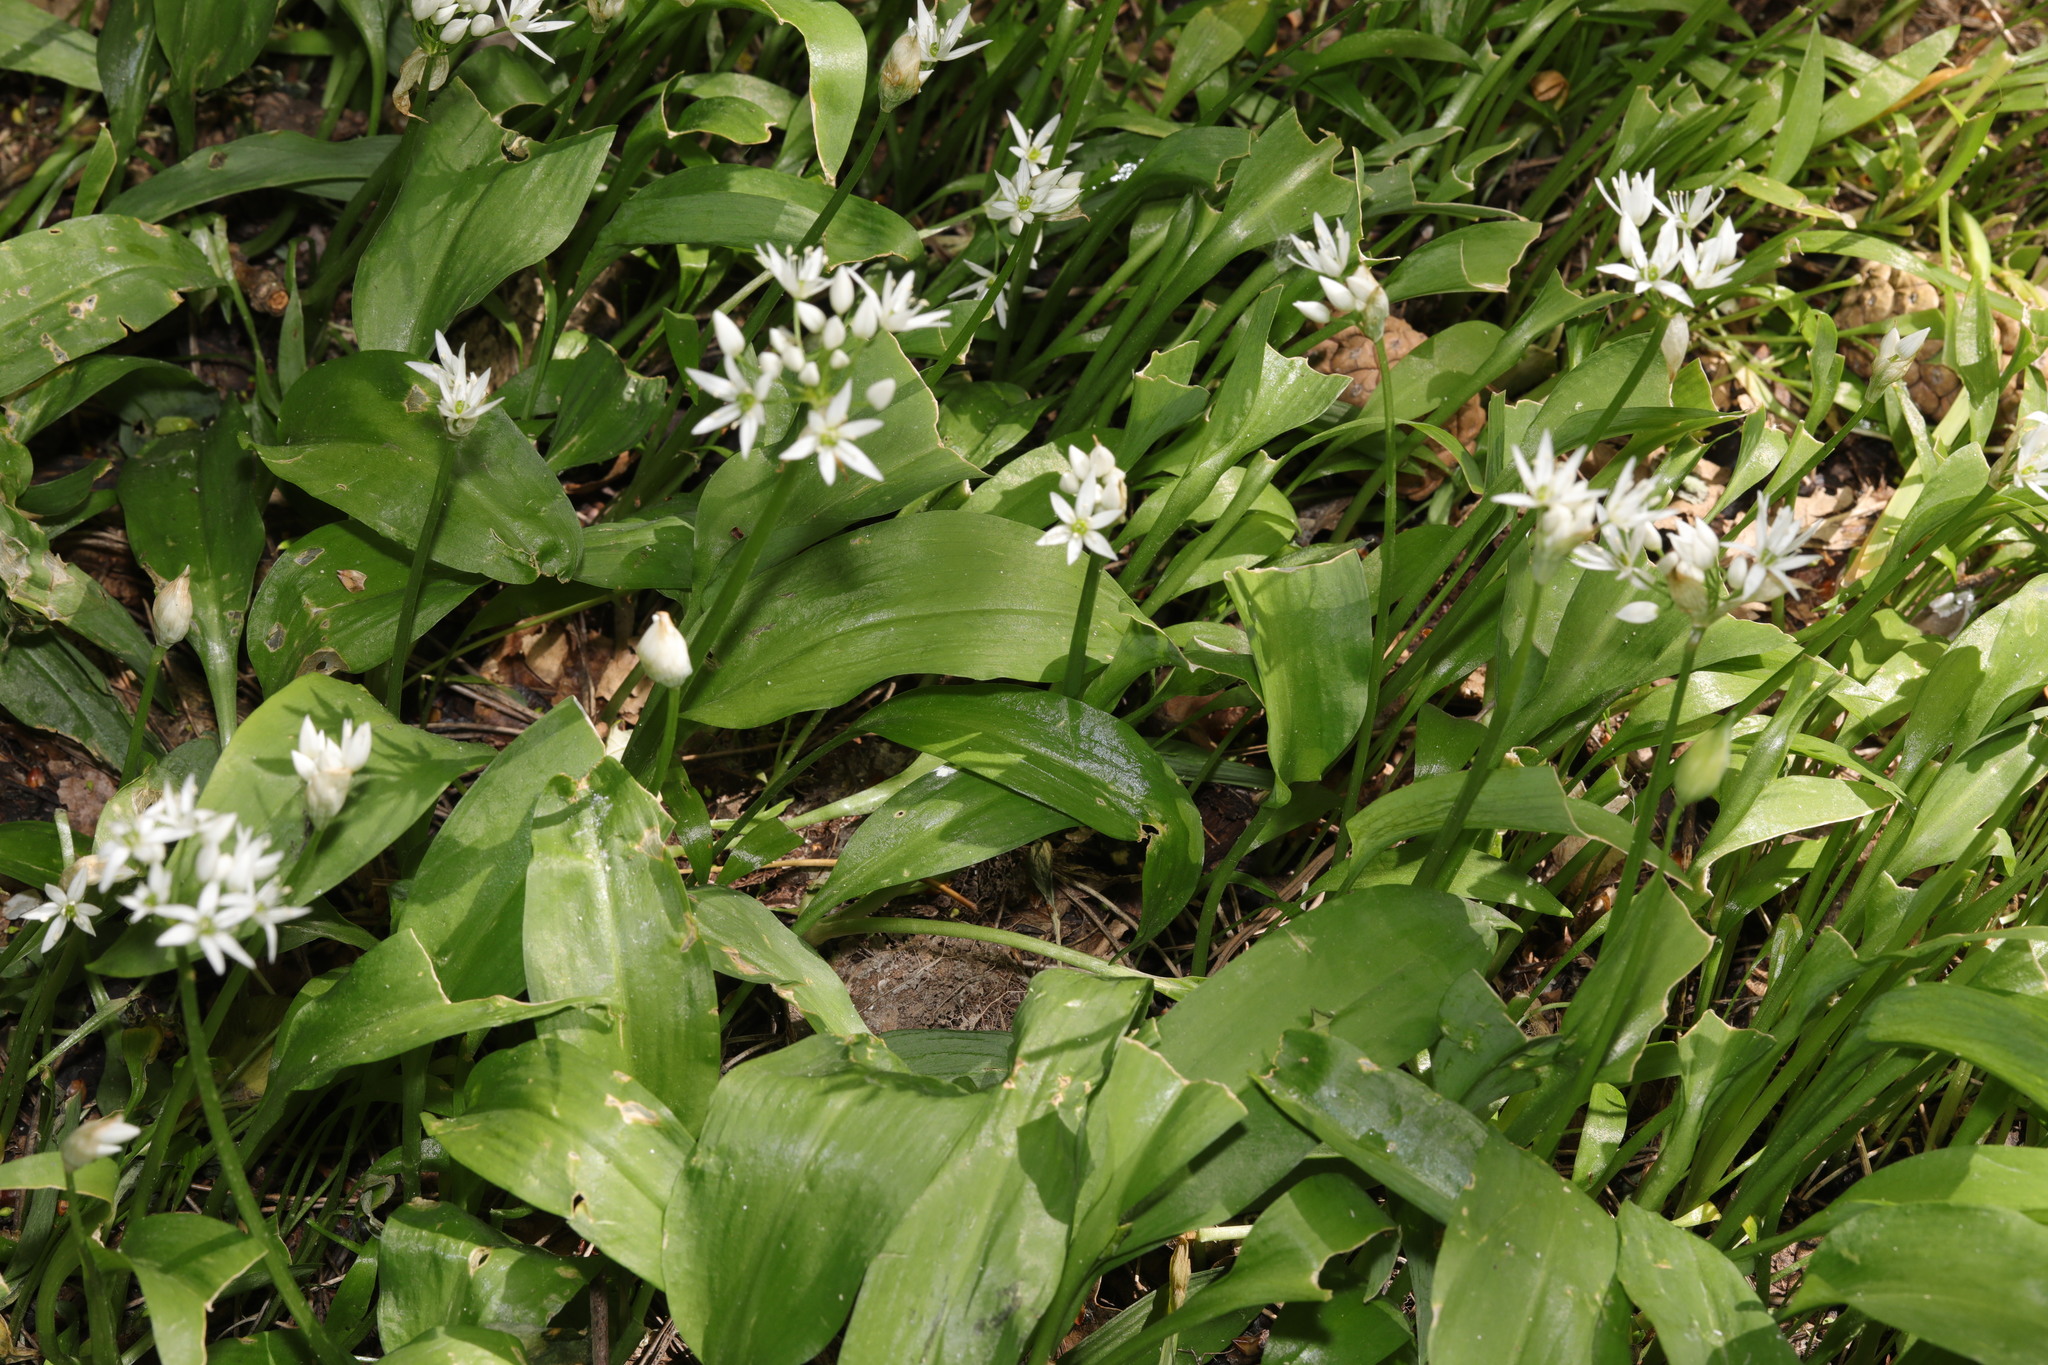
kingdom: Plantae
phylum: Tracheophyta
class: Liliopsida
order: Asparagales
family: Amaryllidaceae
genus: Allium
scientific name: Allium ursinum
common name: Ramsons
